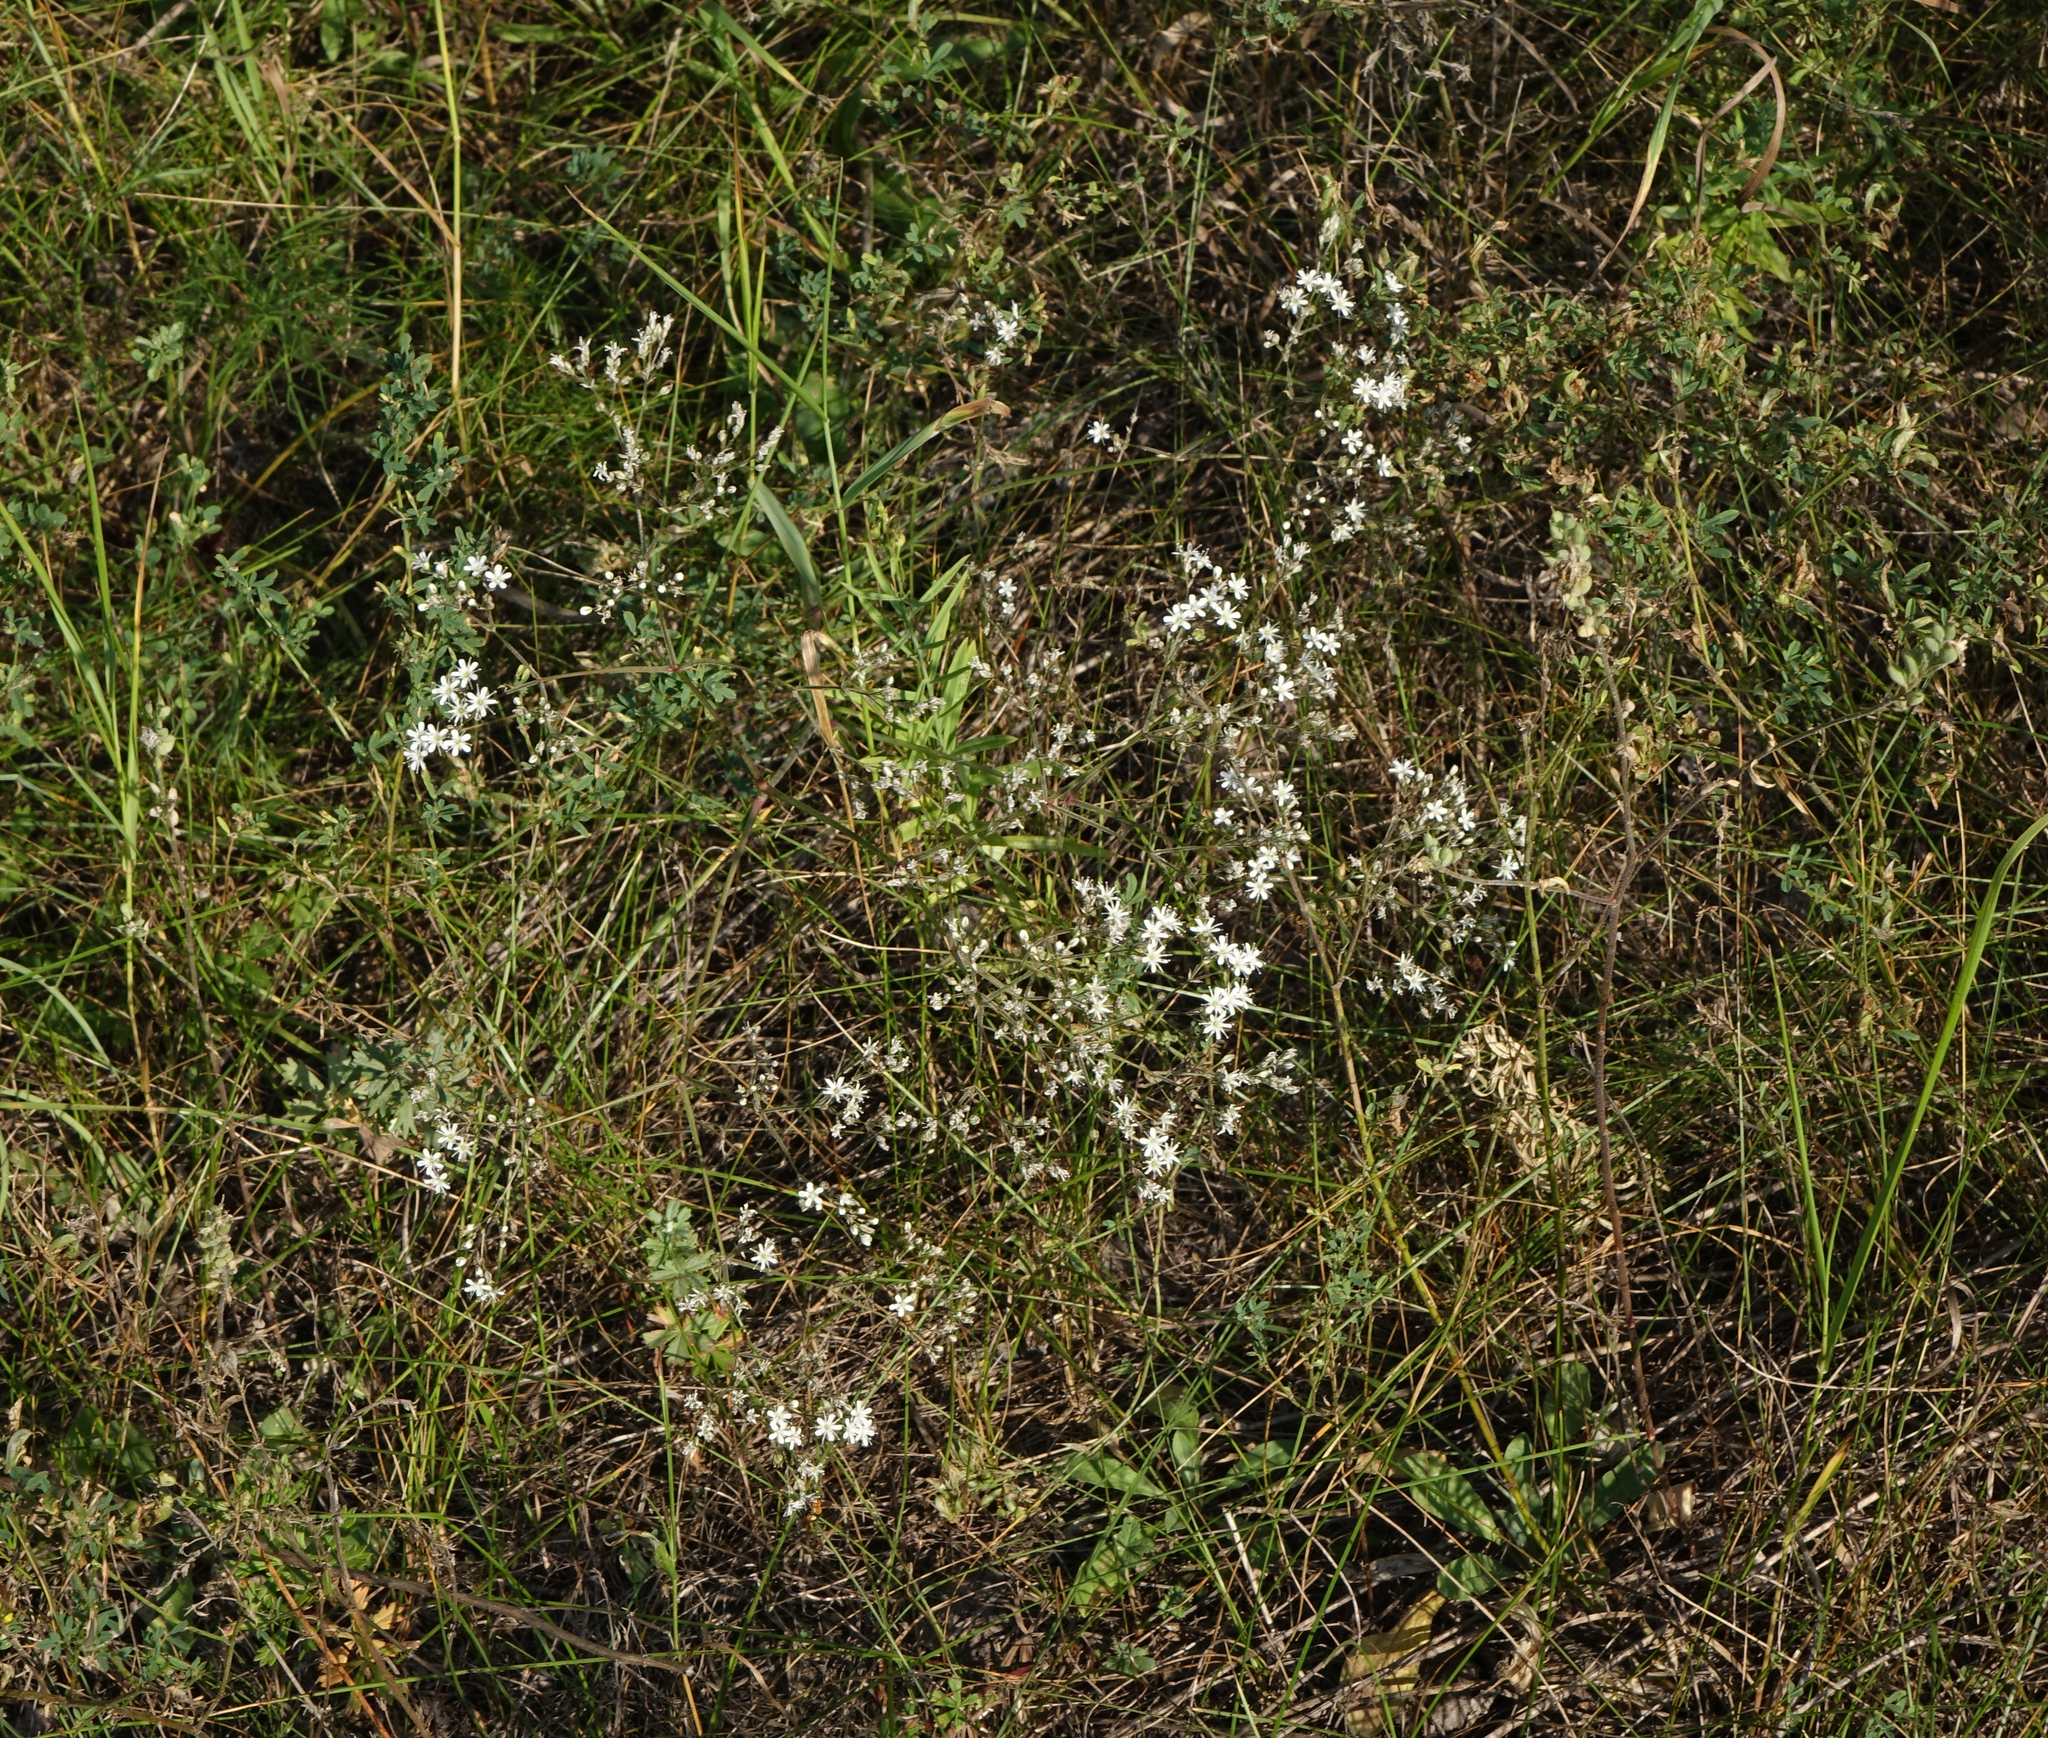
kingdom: Plantae
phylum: Tracheophyta
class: Magnoliopsida
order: Caryophyllales
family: Caryophyllaceae
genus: Gypsophila
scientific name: Gypsophila altissima
